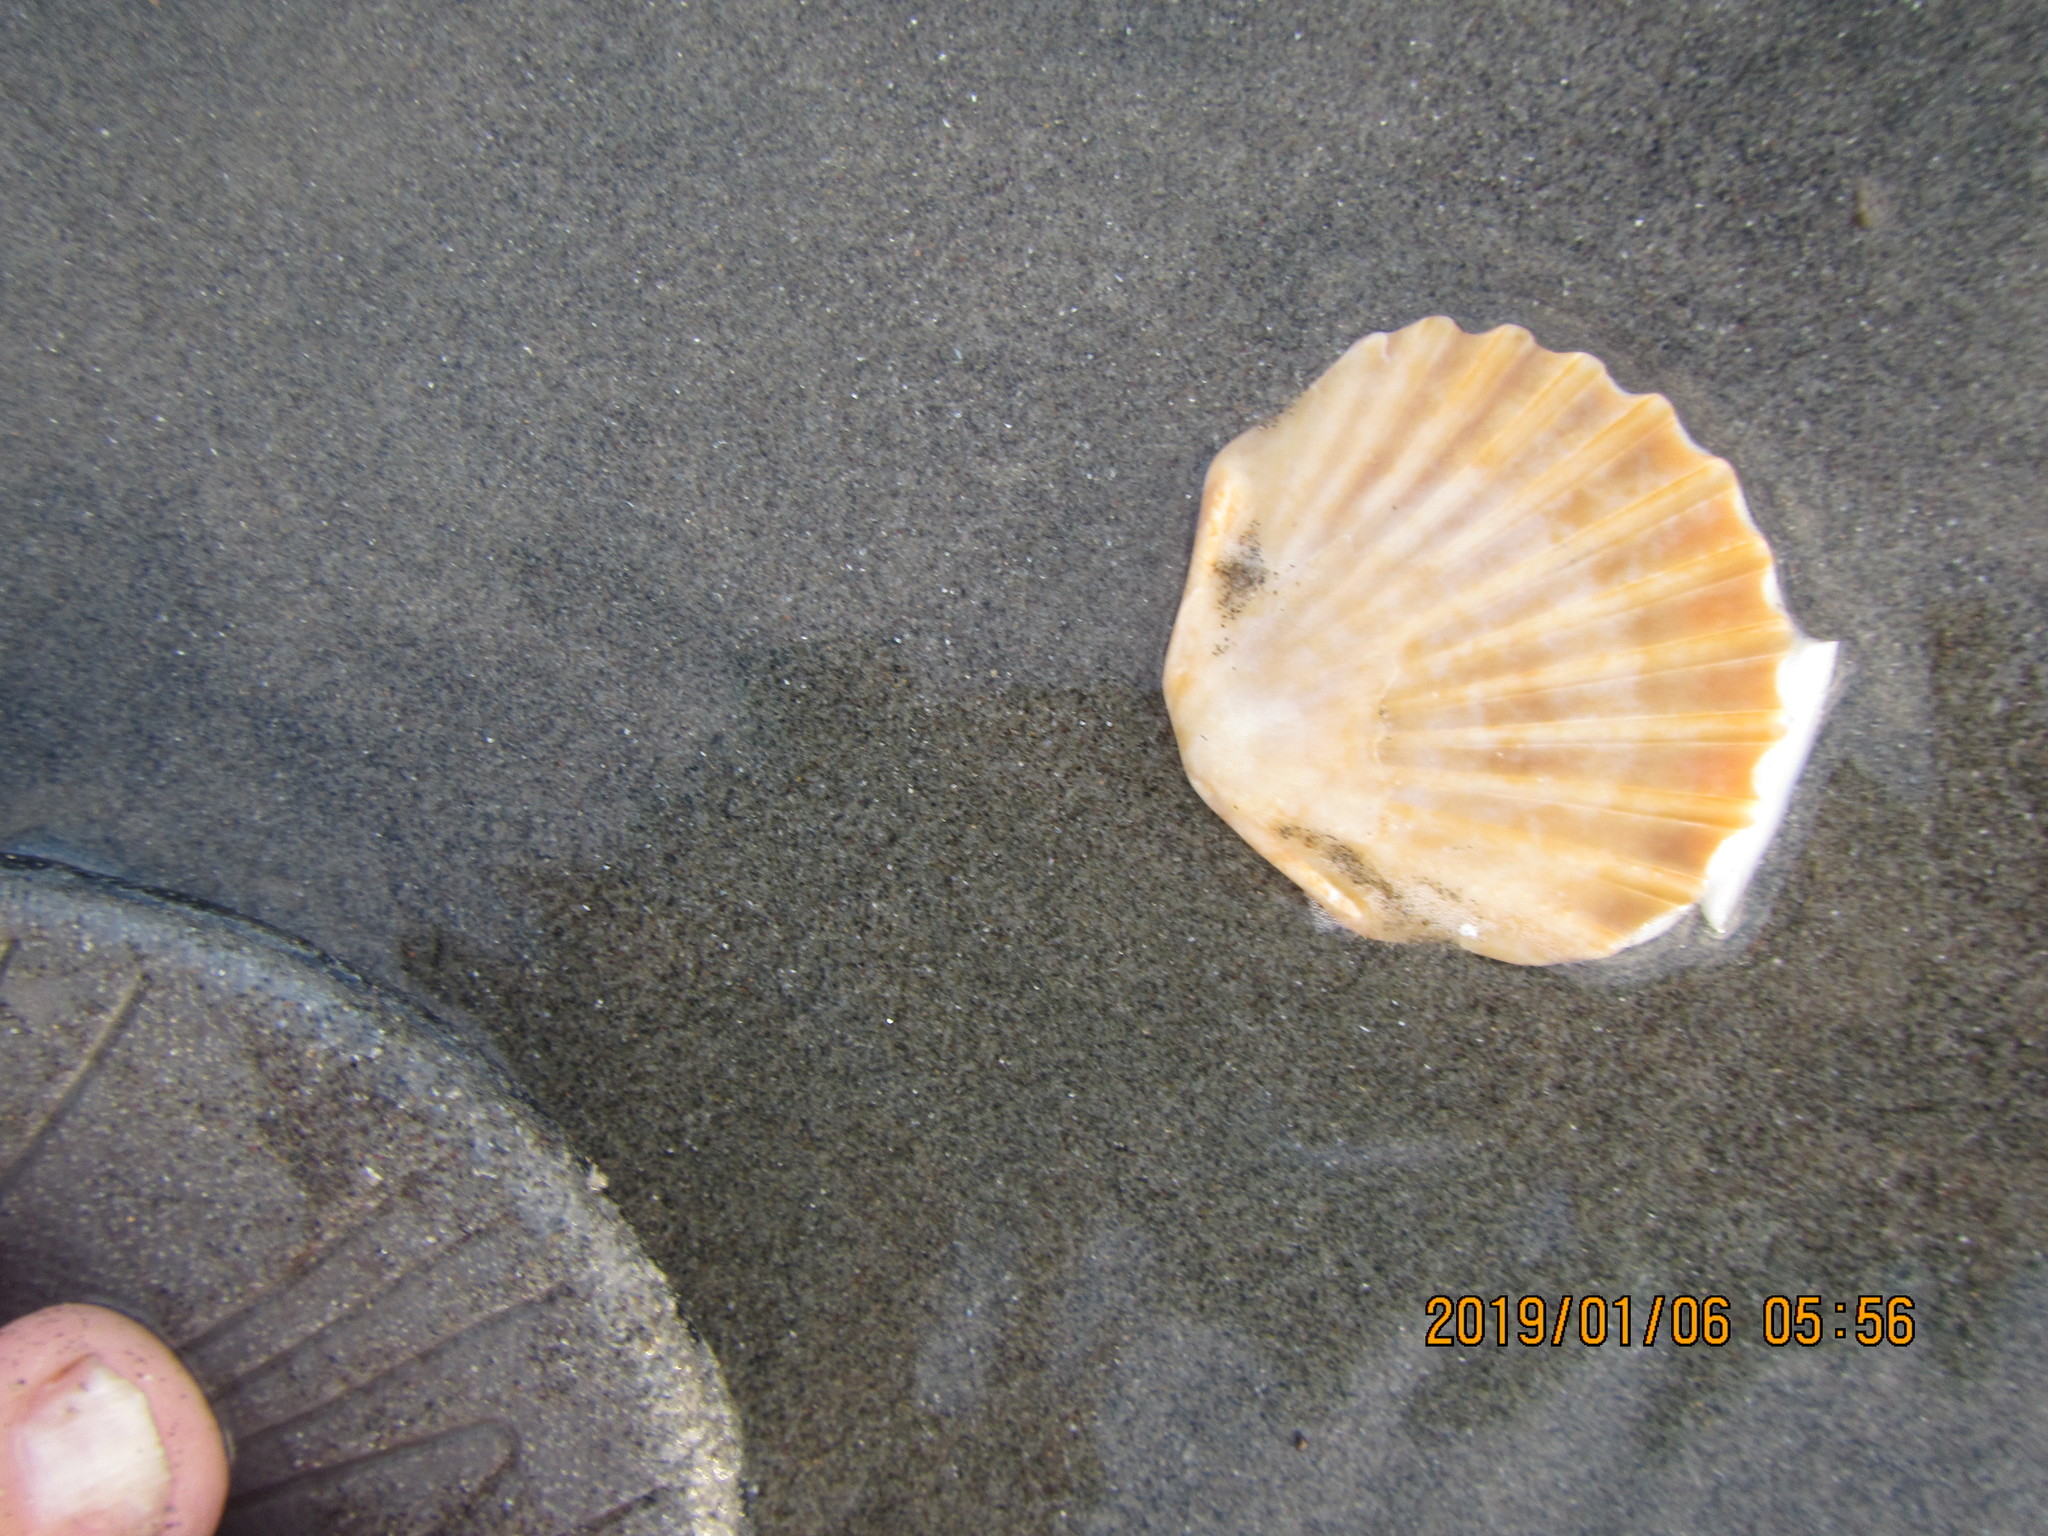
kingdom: Animalia
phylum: Mollusca
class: Bivalvia
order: Pectinida
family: Pectinidae
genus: Pecten
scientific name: Pecten novaezelandiae
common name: New zealand scallop
